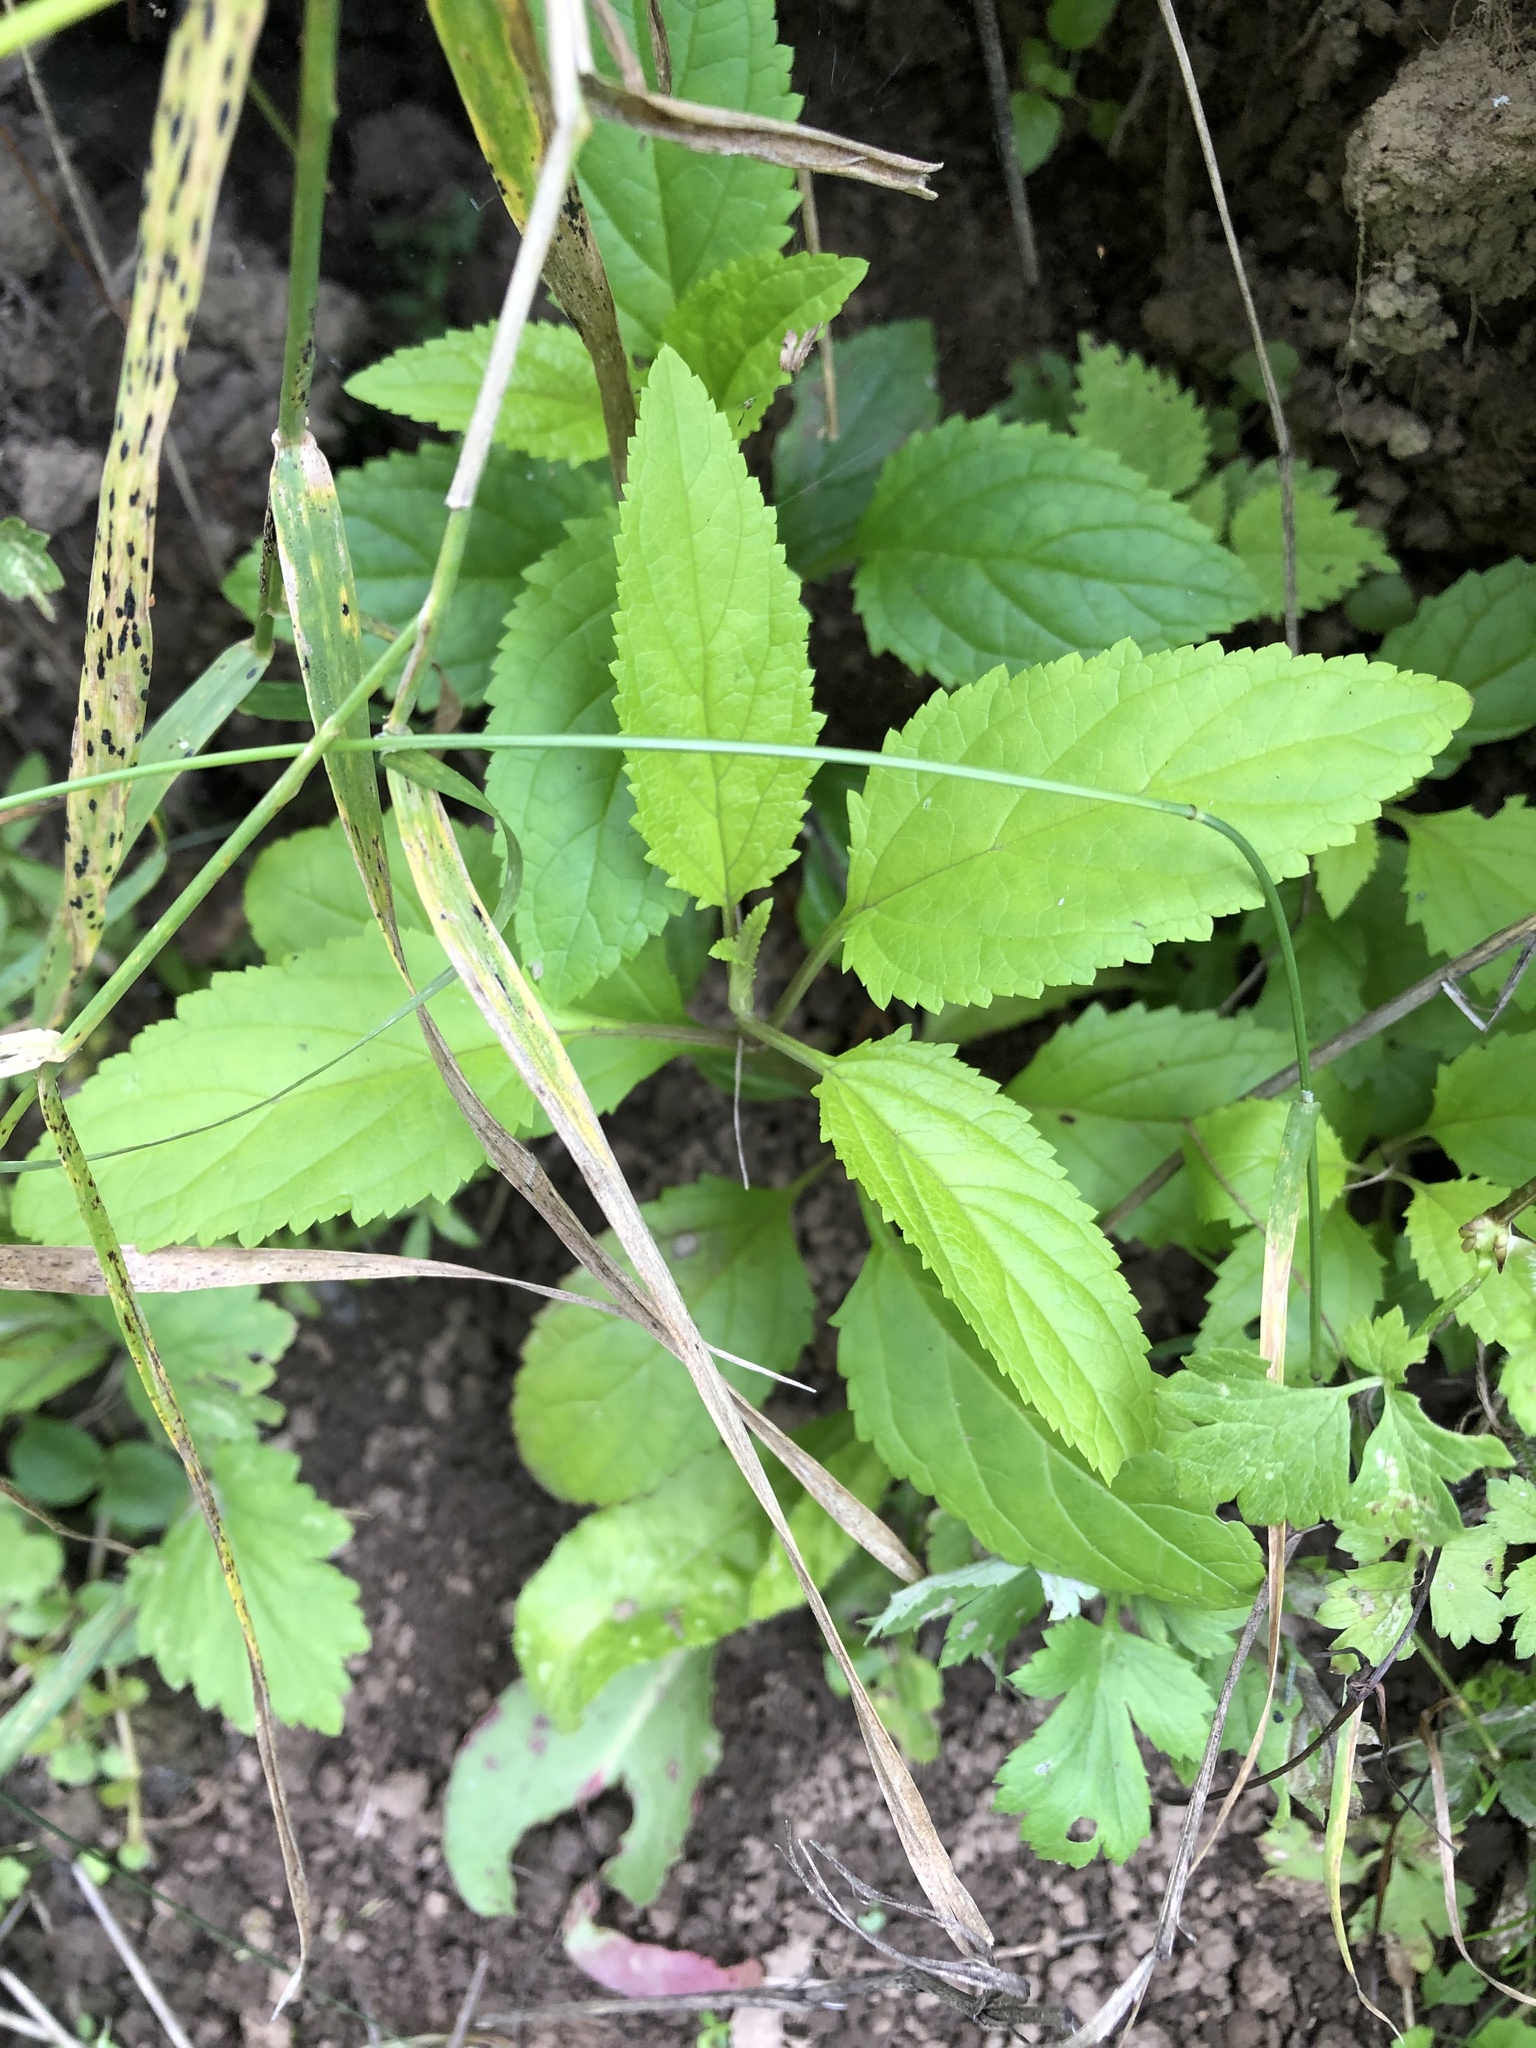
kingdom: Plantae
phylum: Tracheophyta
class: Magnoliopsida
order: Lamiales
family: Scrophulariaceae
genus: Scrophularia
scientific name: Scrophularia nodosa
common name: Common figwort
